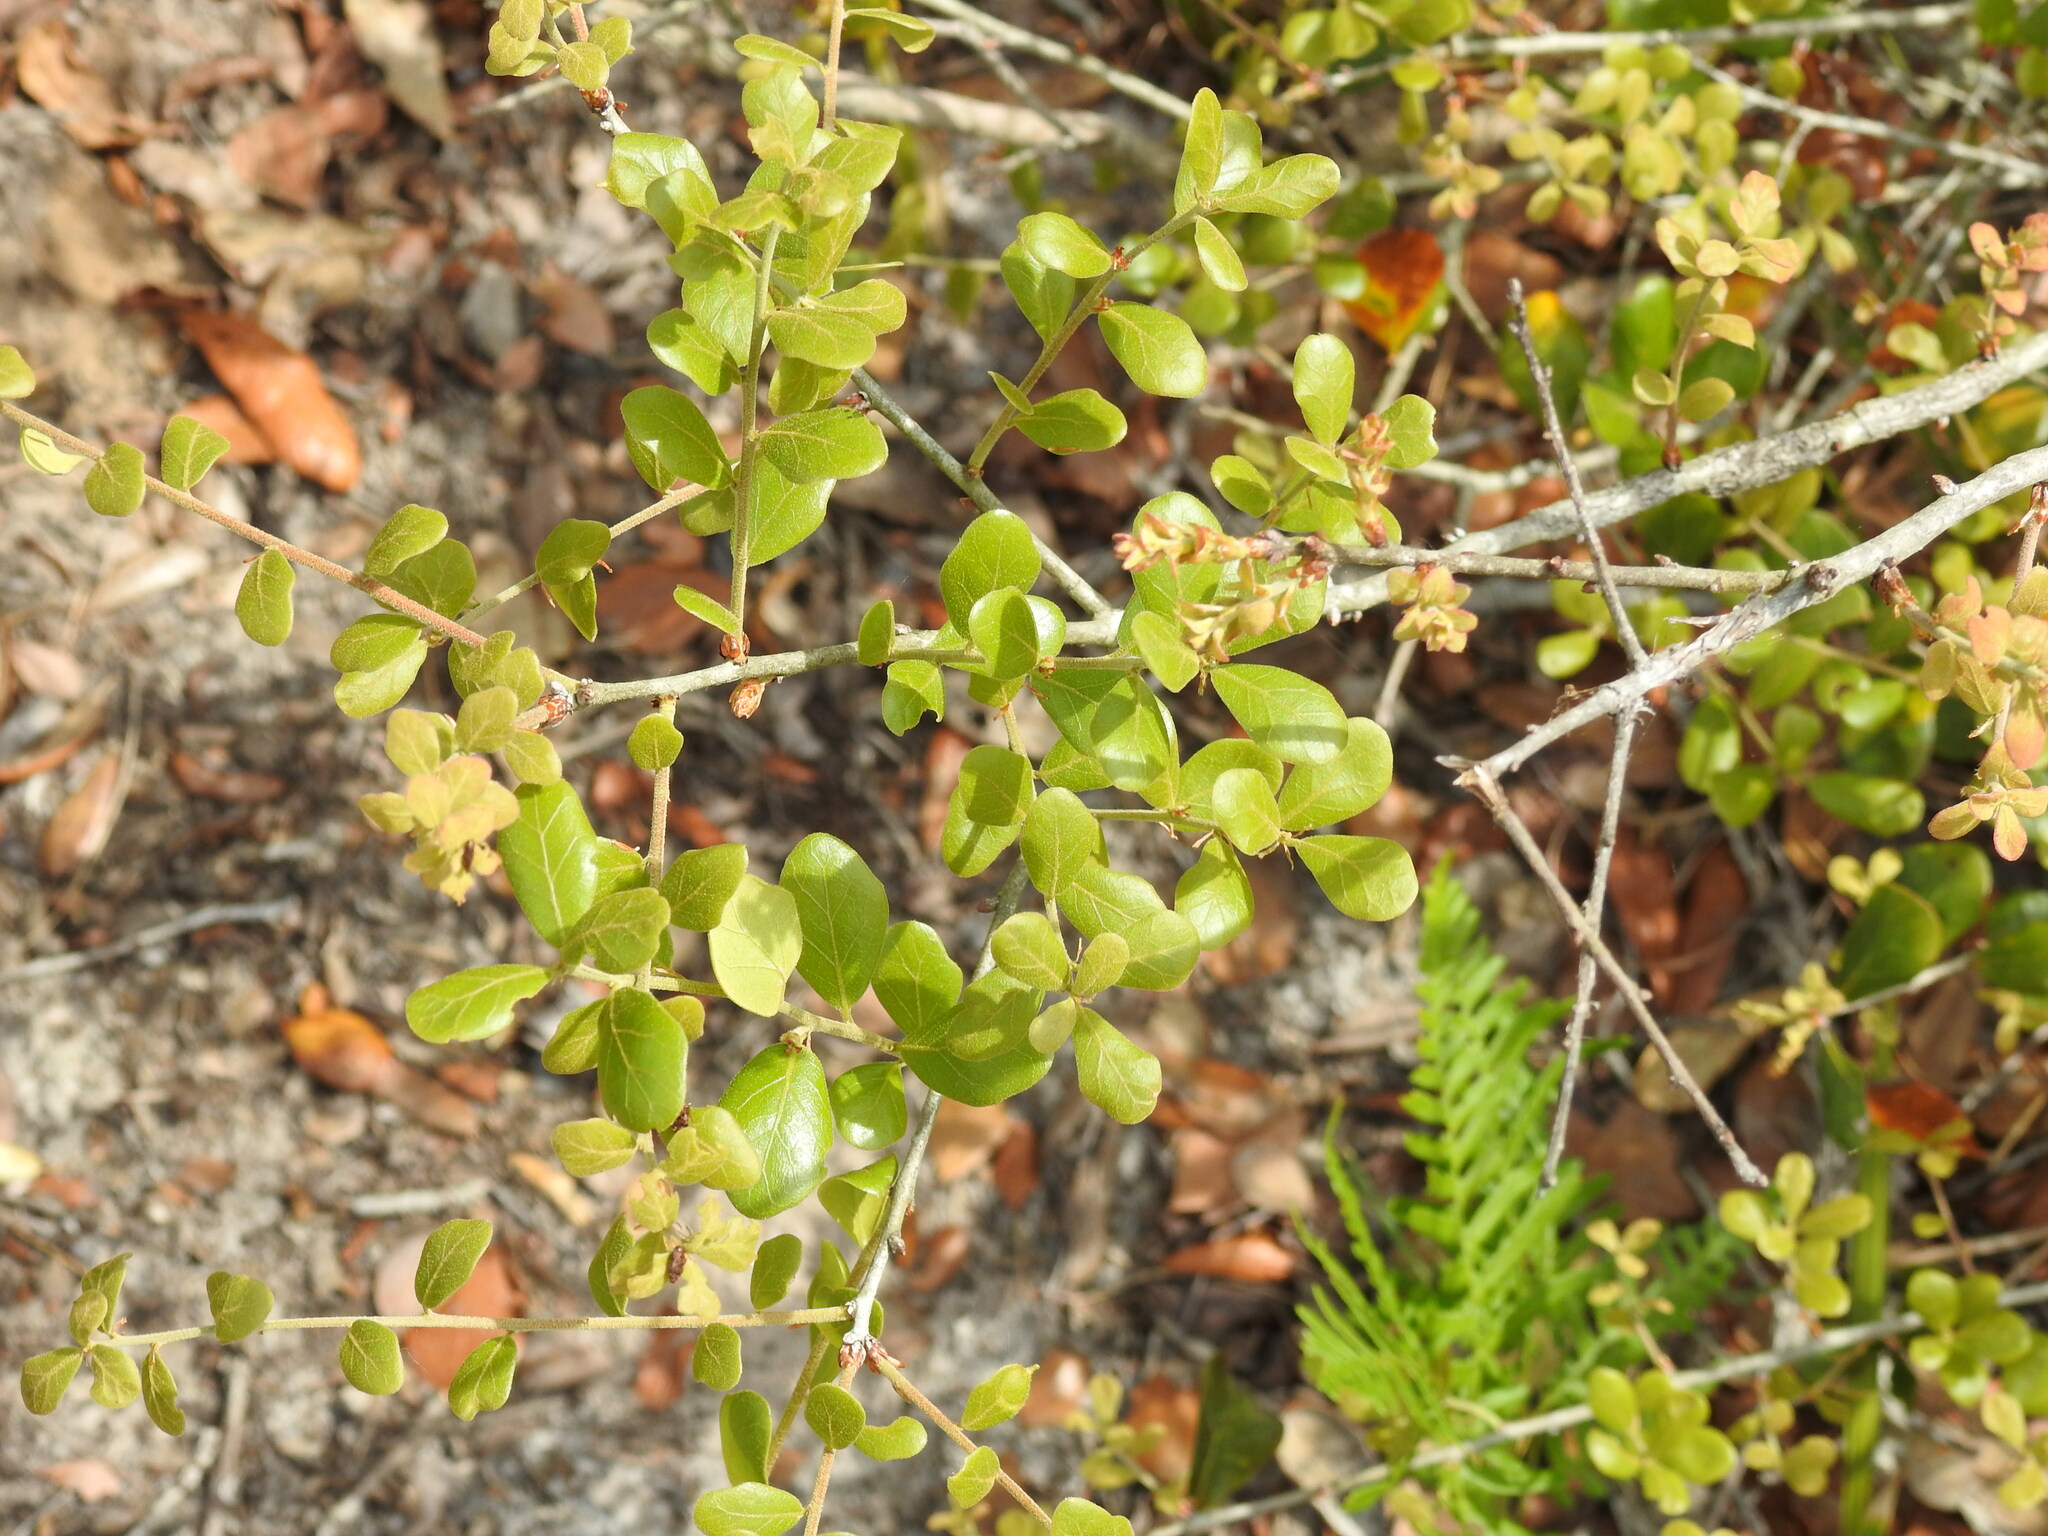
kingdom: Plantae
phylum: Tracheophyta
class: Magnoliopsida
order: Fagales
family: Fagaceae
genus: Quercus
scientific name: Quercus myrtifolia
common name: Myrtle oak
